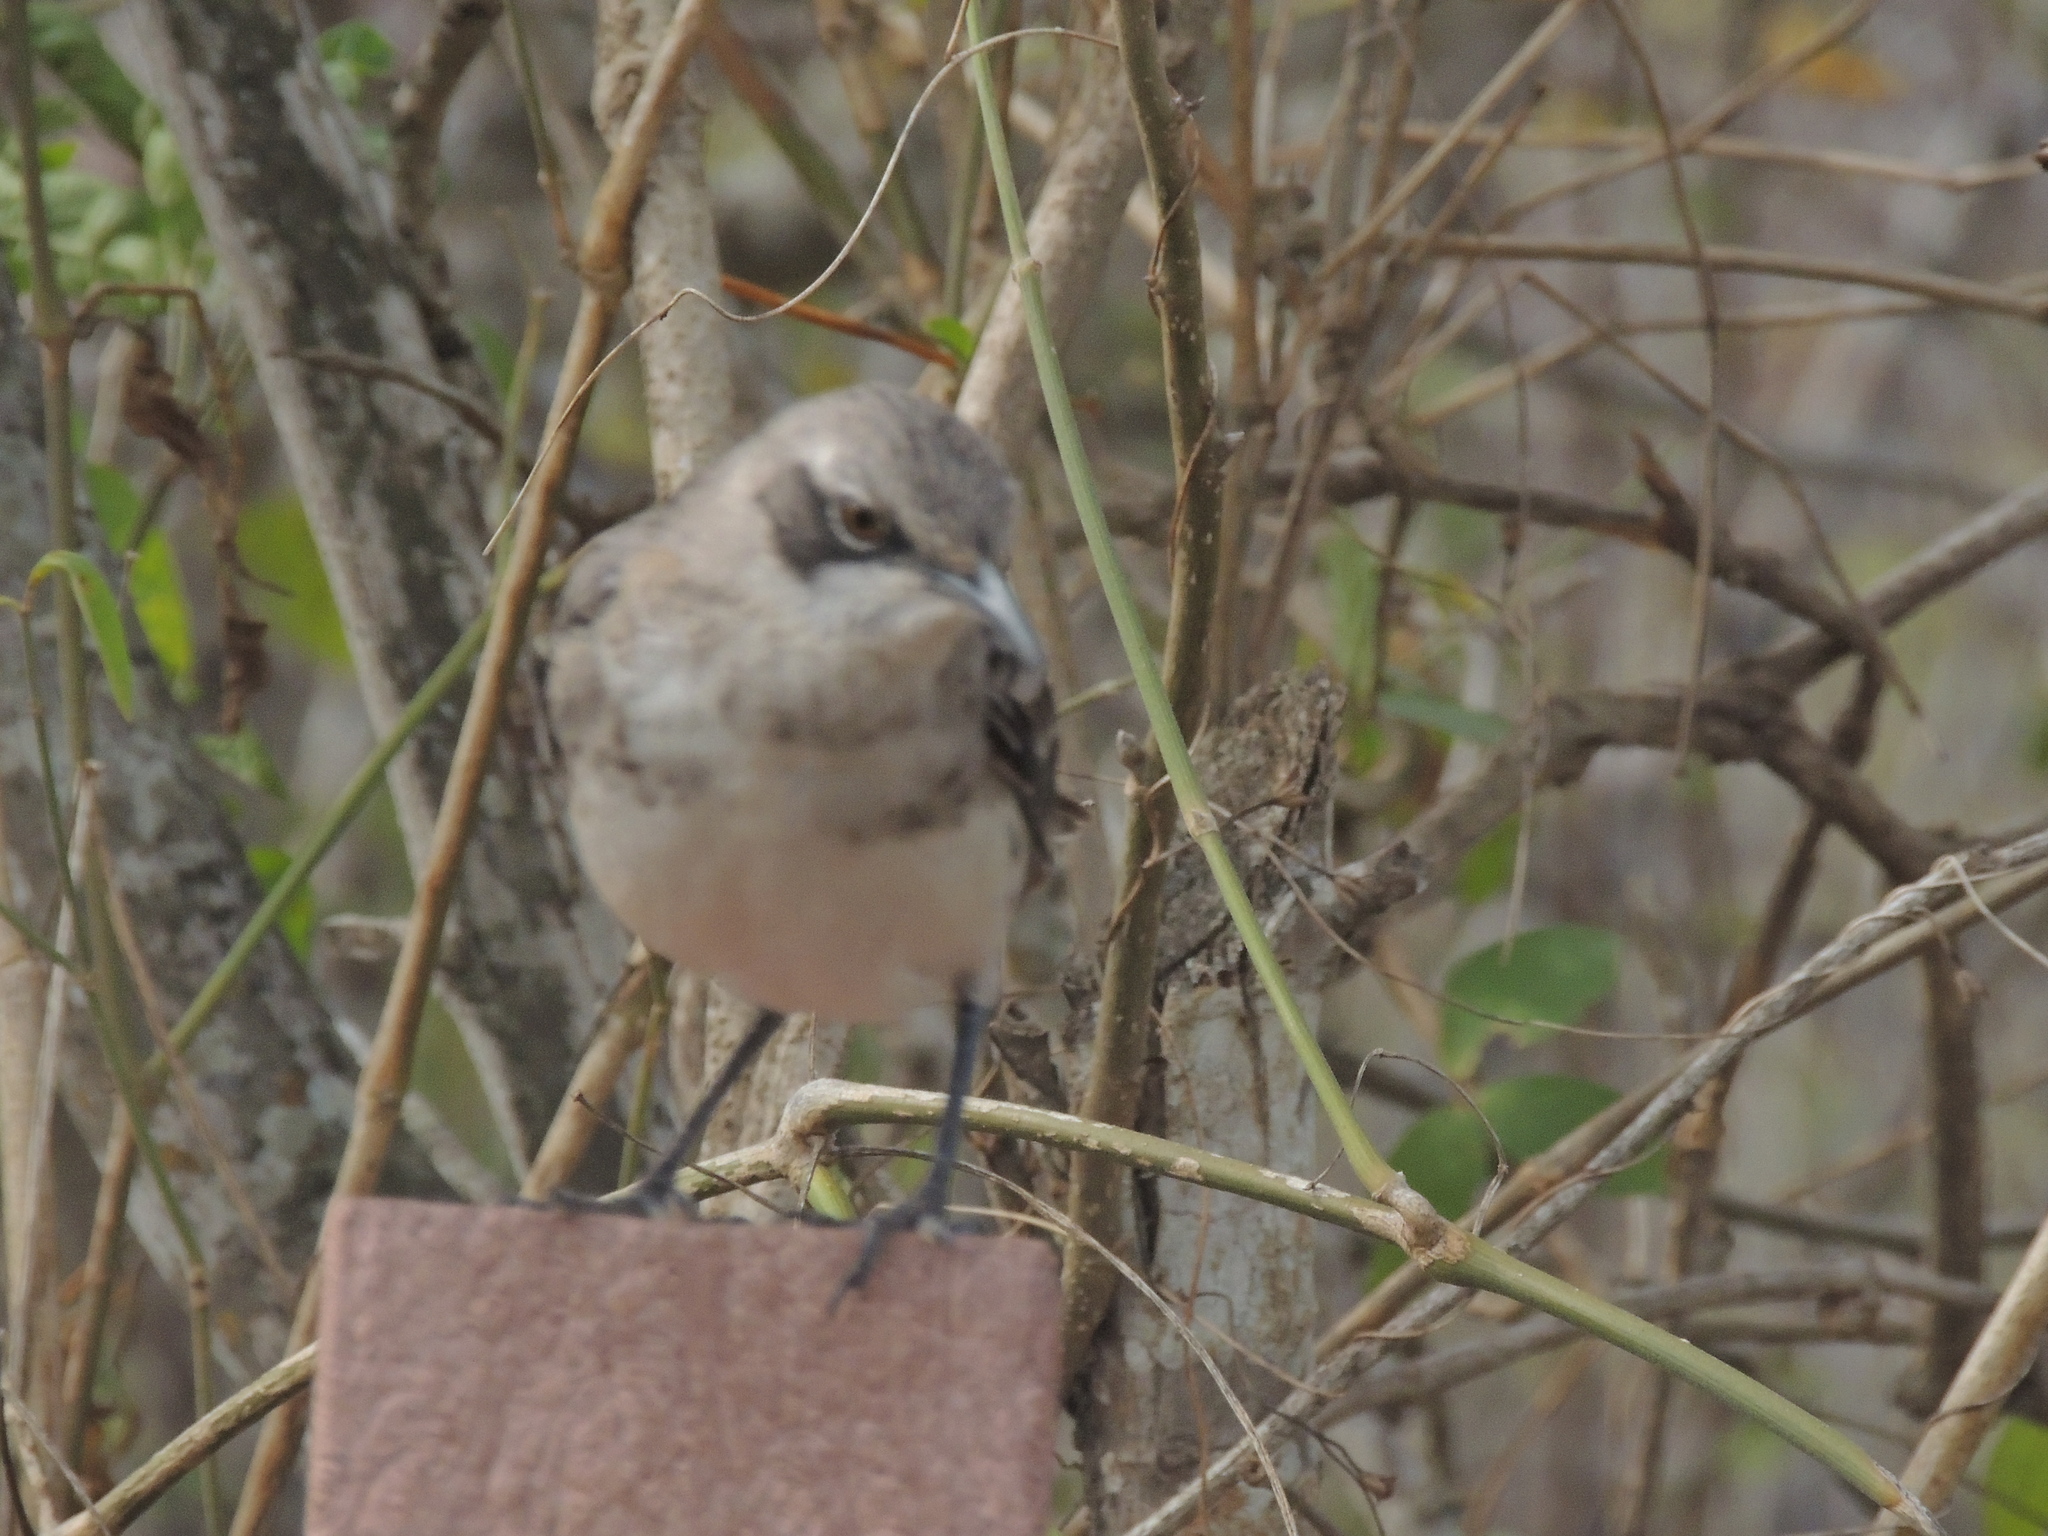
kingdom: Animalia
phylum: Chordata
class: Aves
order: Passeriformes
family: Mimidae
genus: Mimus
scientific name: Mimus melanotis
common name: San cristobal mockingbird
